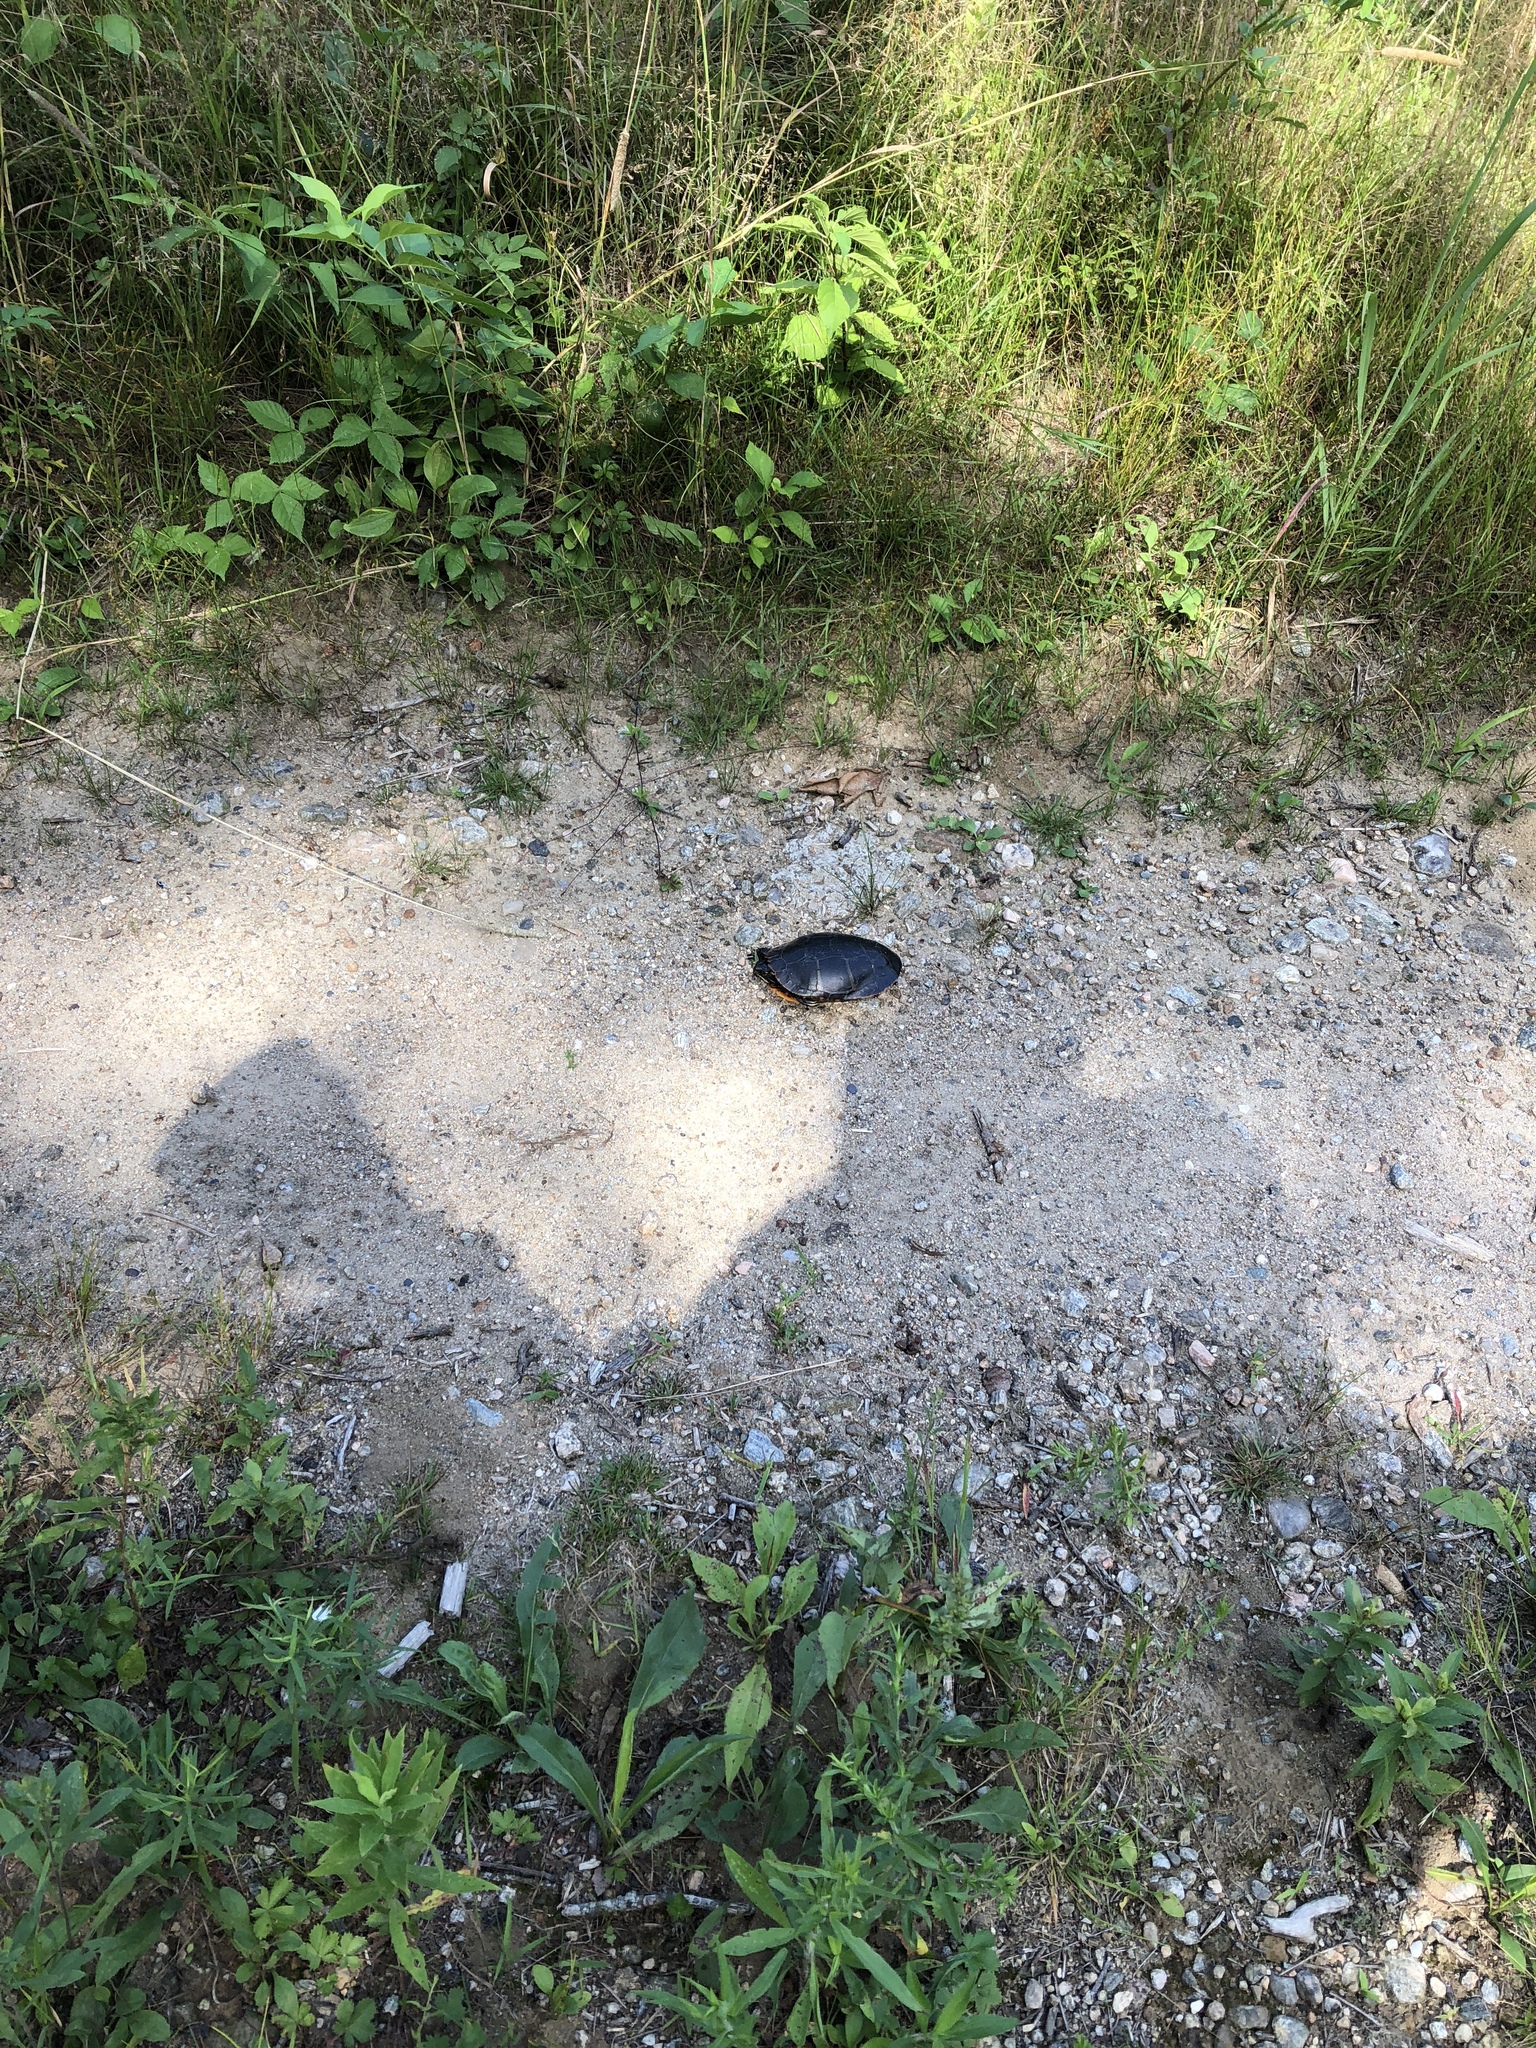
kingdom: Animalia
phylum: Chordata
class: Testudines
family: Emydidae
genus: Chrysemys
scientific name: Chrysemys picta
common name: Painted turtle
